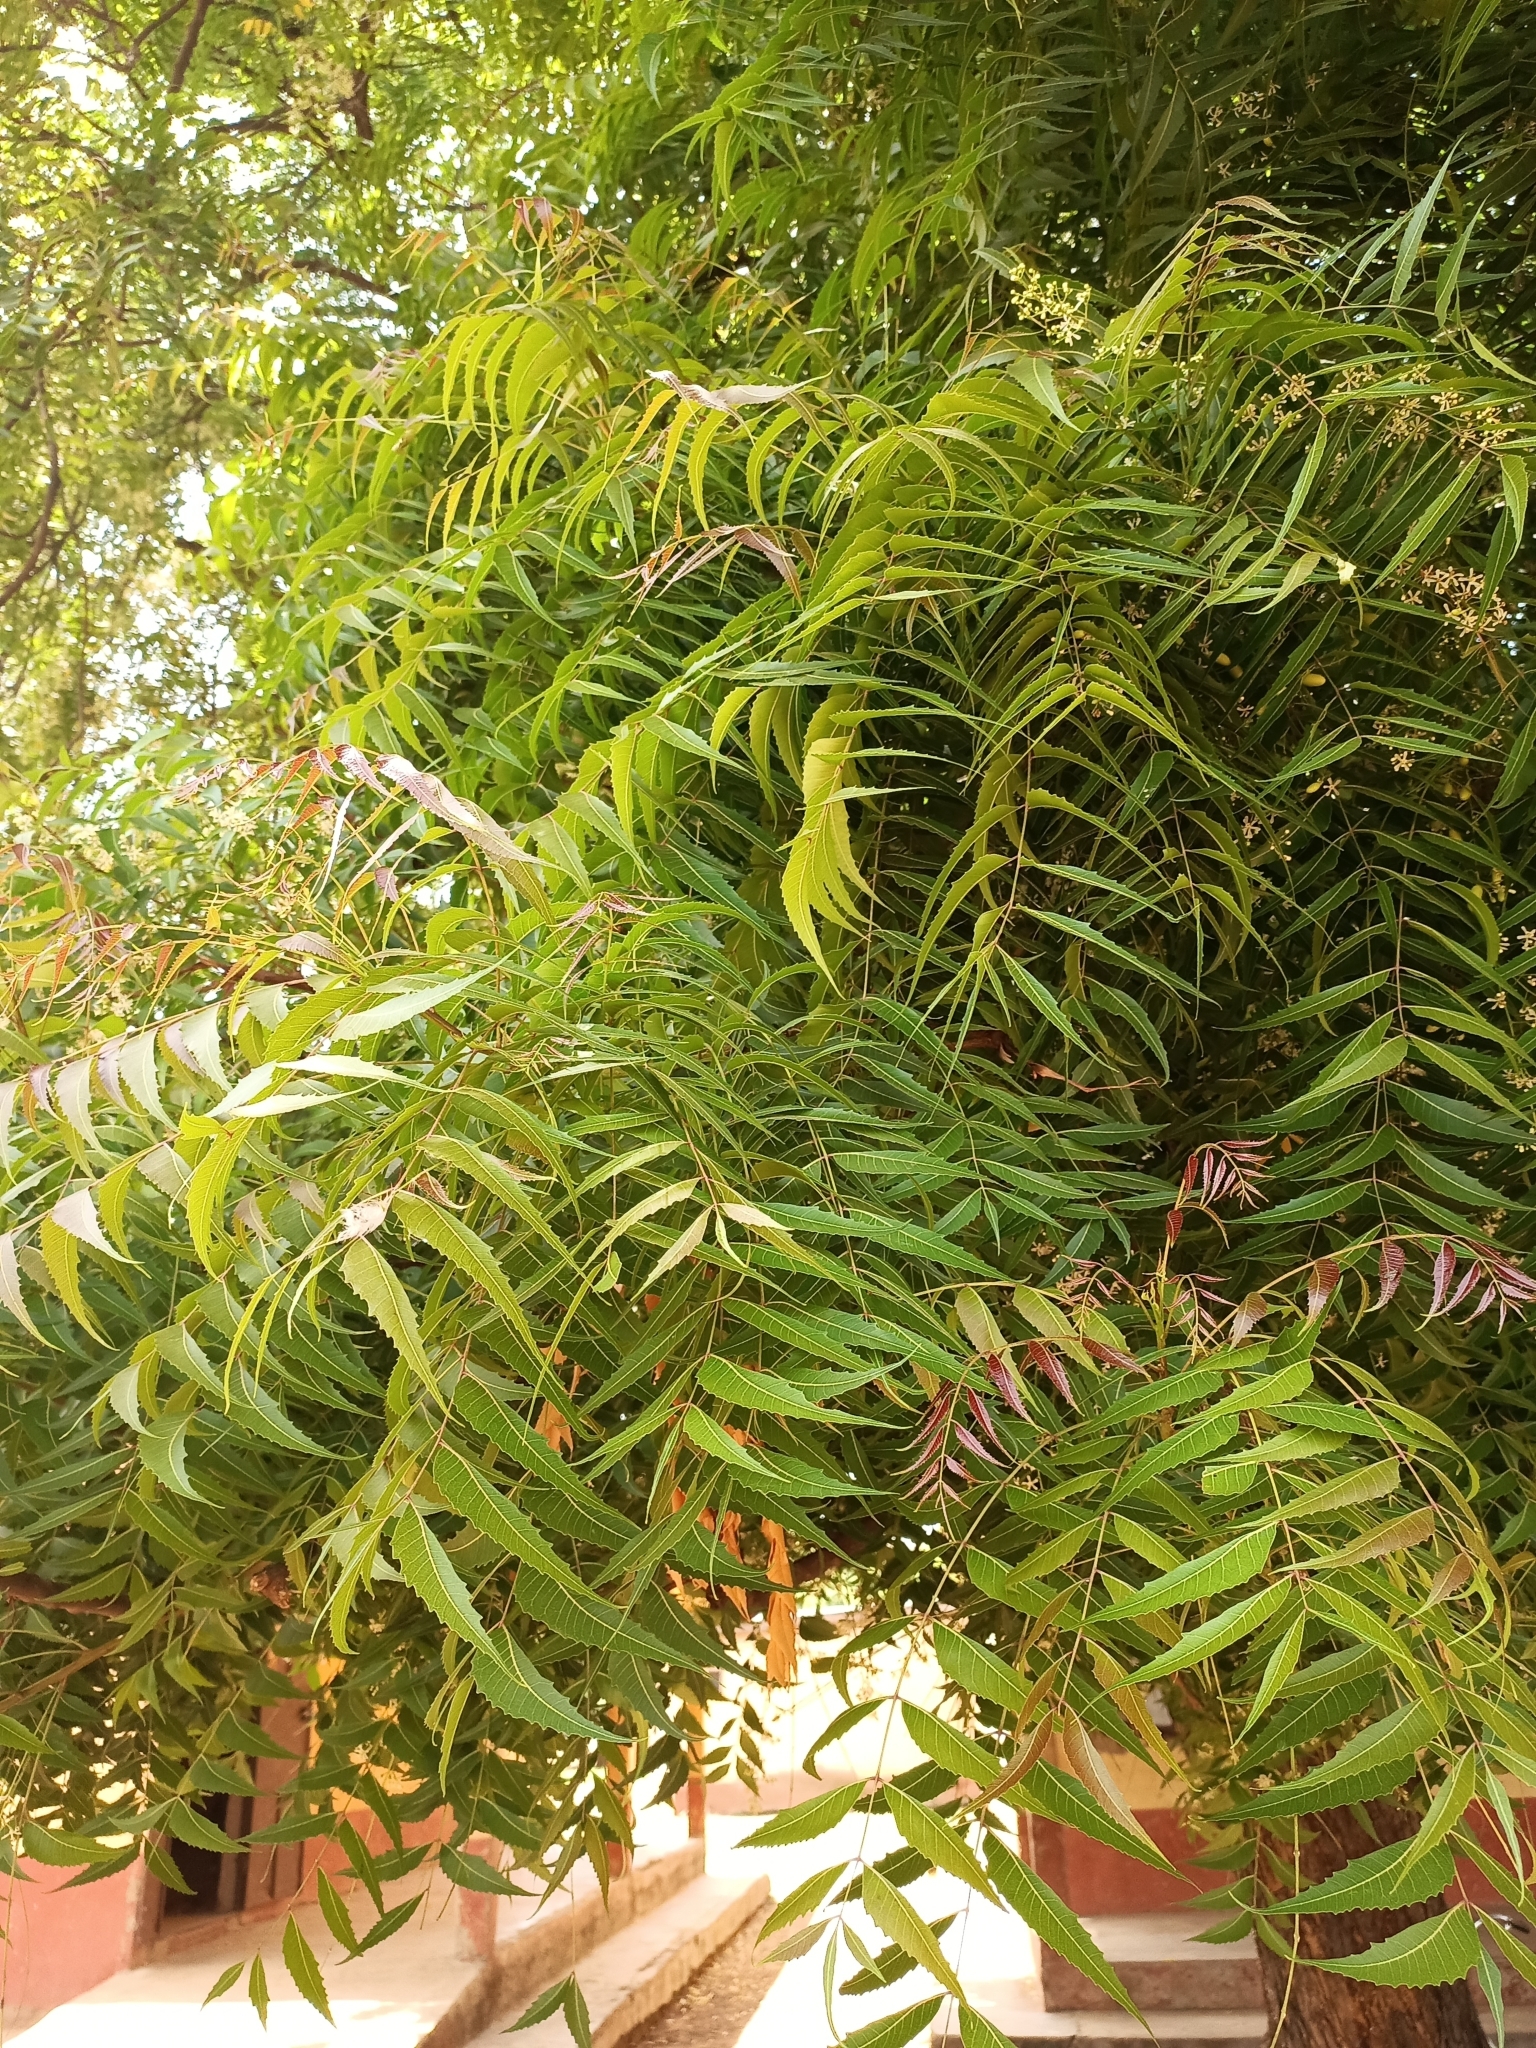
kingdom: Plantae
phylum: Tracheophyta
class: Magnoliopsida
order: Sapindales
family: Meliaceae
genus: Azadirachta
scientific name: Azadirachta indica
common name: Neem
